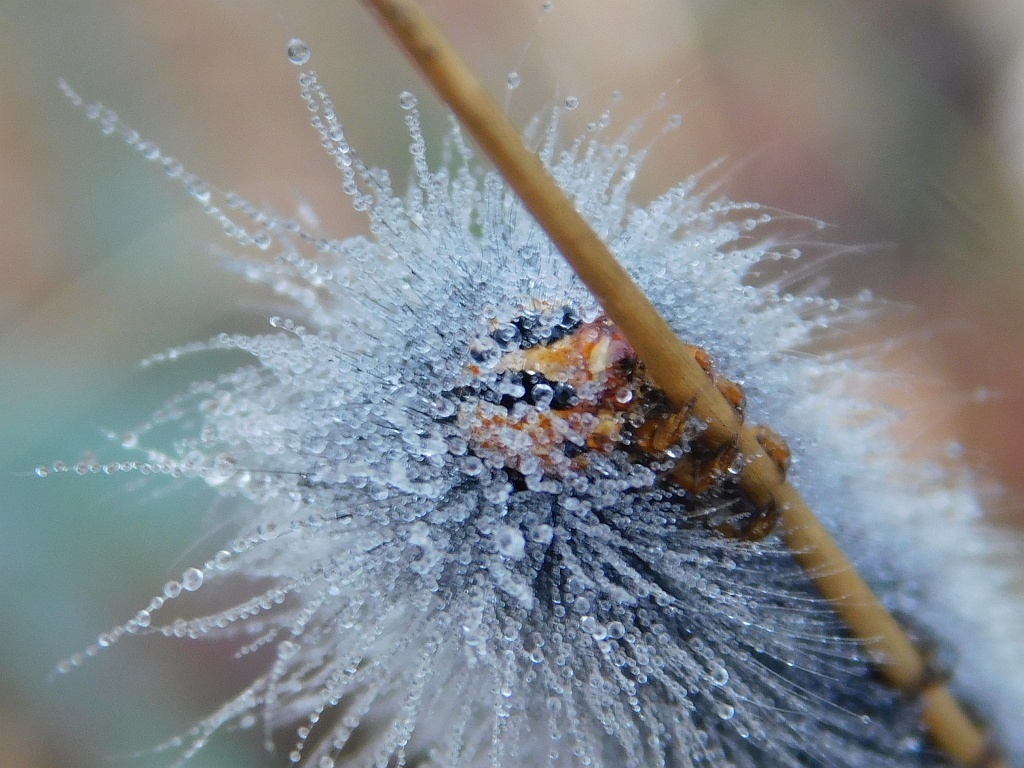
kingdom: Animalia
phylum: Arthropoda
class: Insecta
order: Lepidoptera
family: Lasiocampidae
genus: Mesocelis
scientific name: Mesocelis monticola
